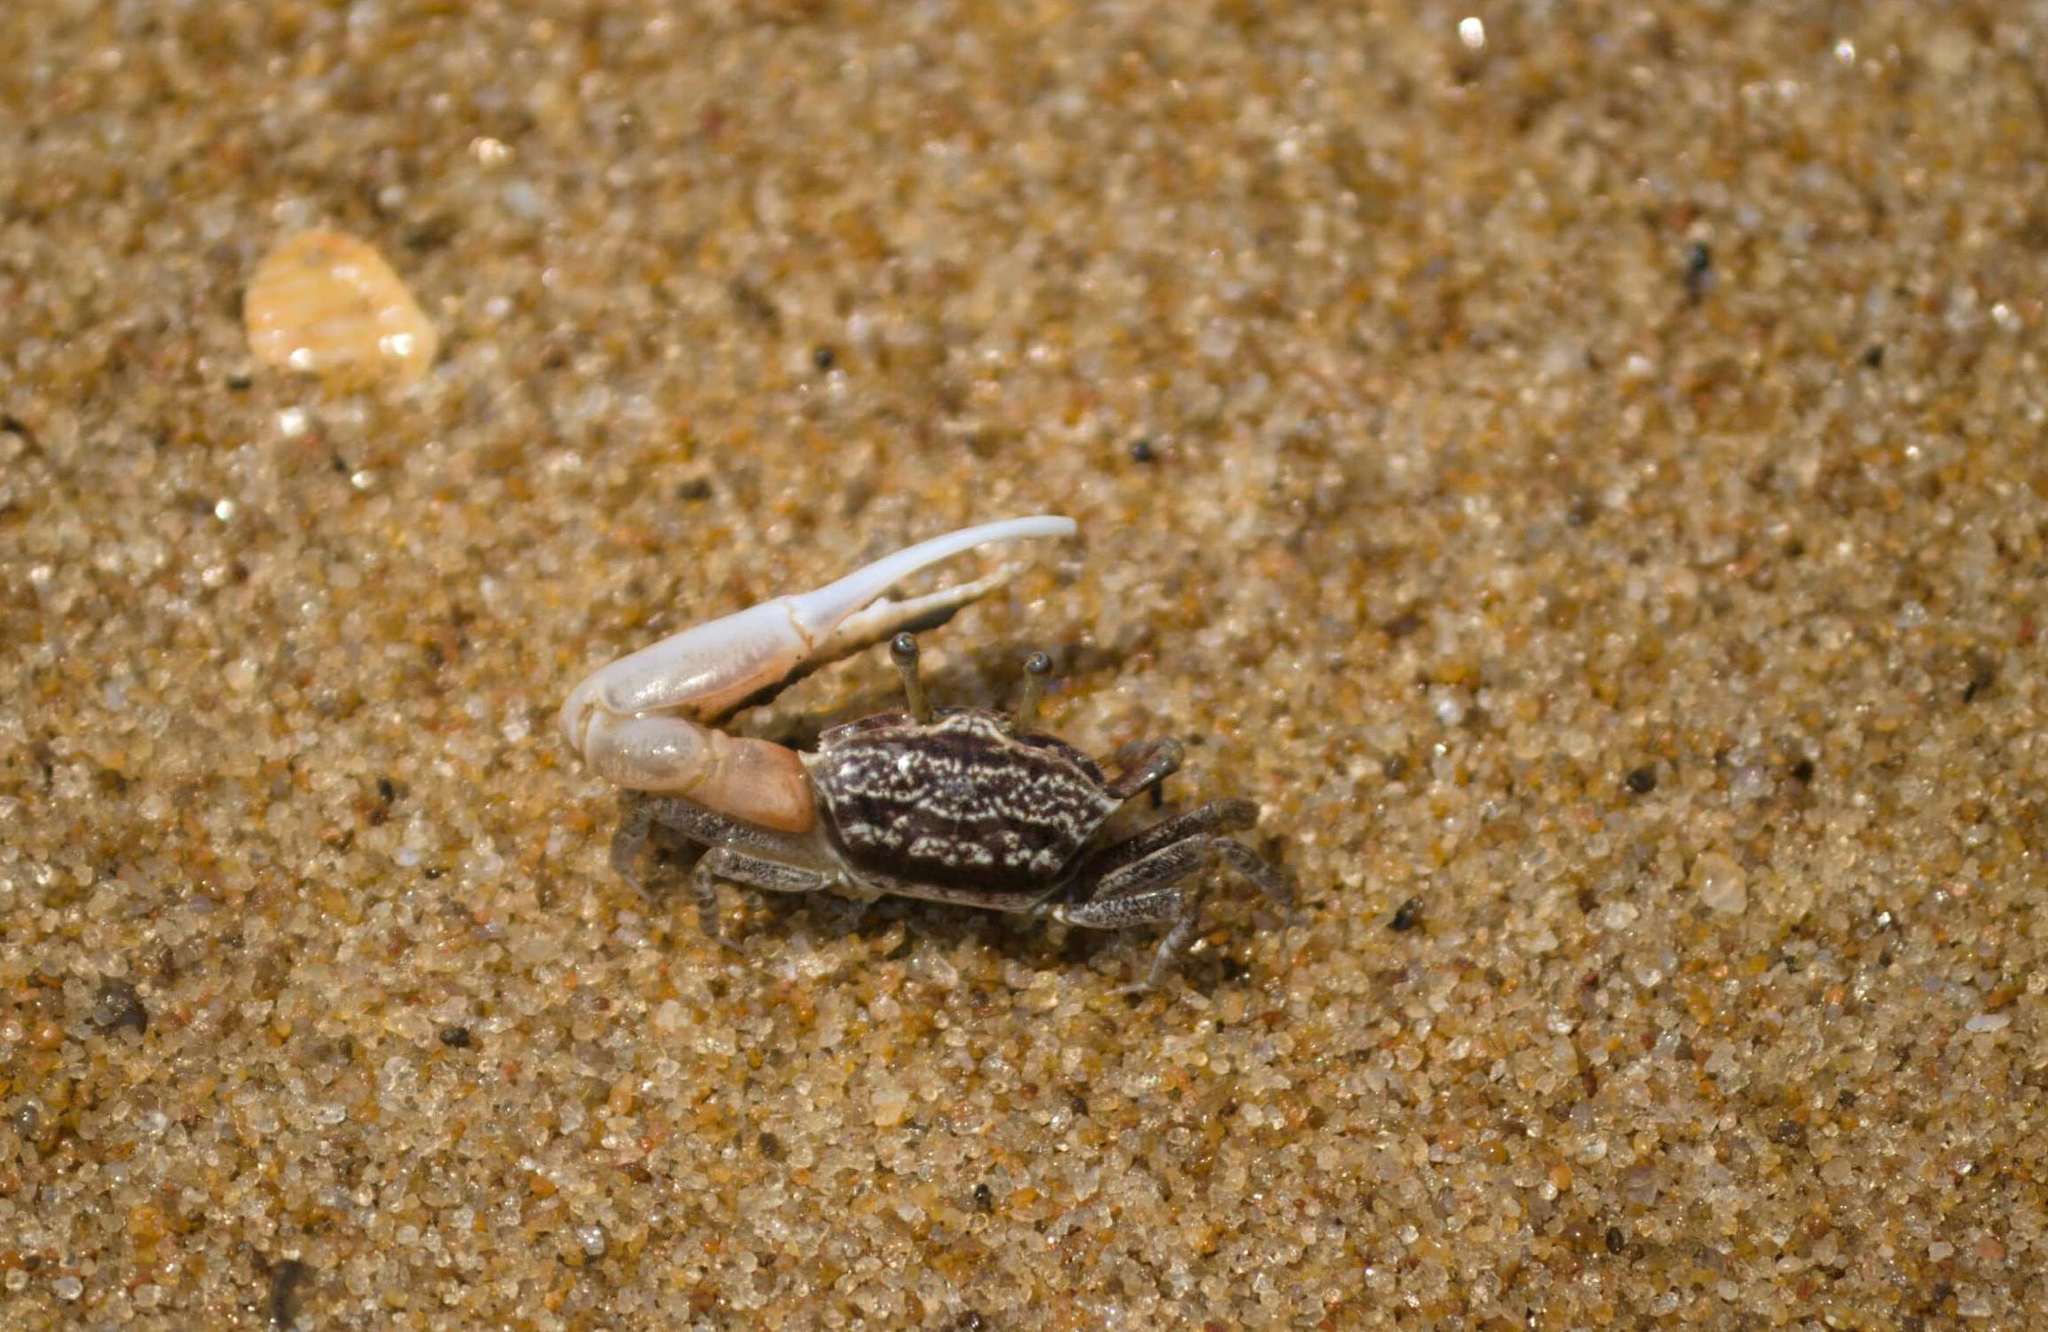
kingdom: Animalia
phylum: Arthropoda
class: Malacostraca
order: Decapoda
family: Ocypodidae
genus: Austruca
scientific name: Austruca annulipes
